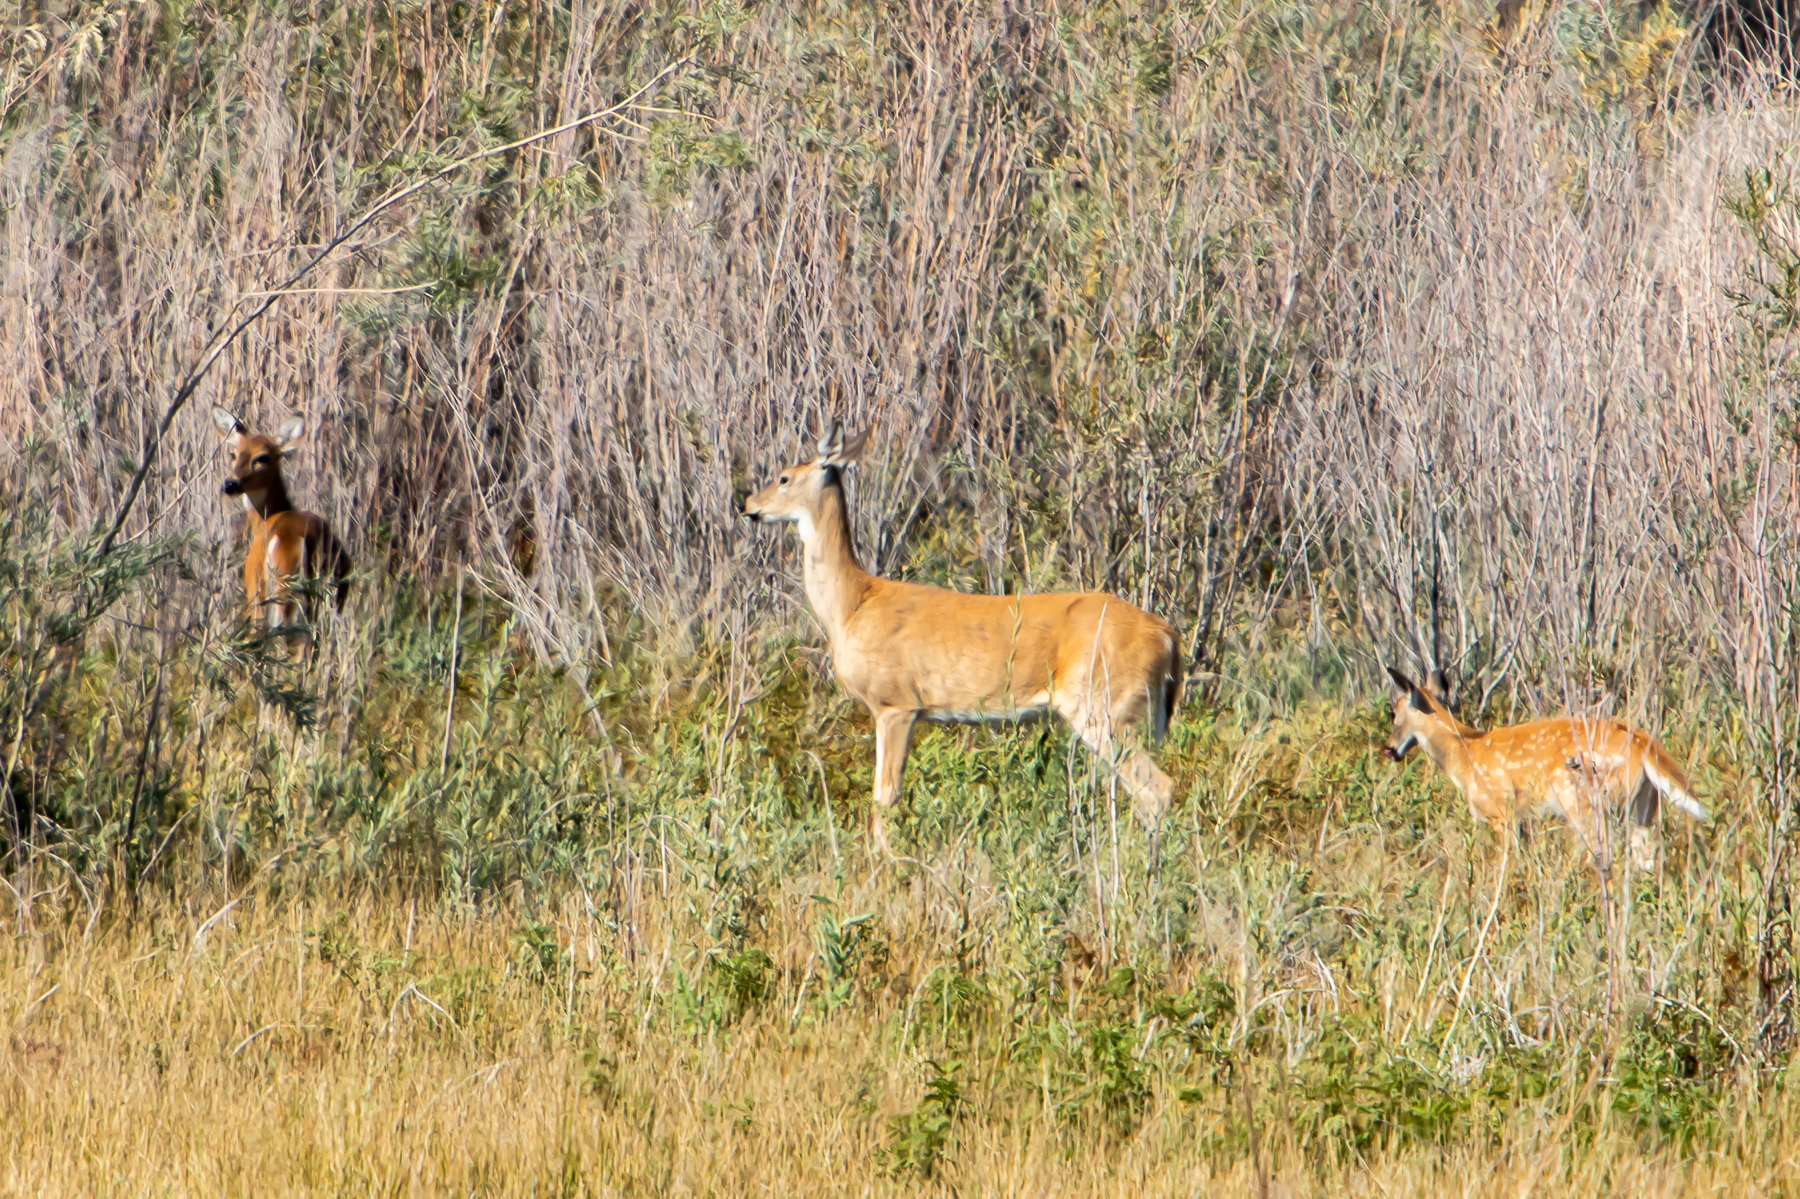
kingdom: Animalia
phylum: Chordata
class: Mammalia
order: Artiodactyla
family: Cervidae
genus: Odocoileus
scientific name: Odocoileus virginianus
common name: White-tailed deer
